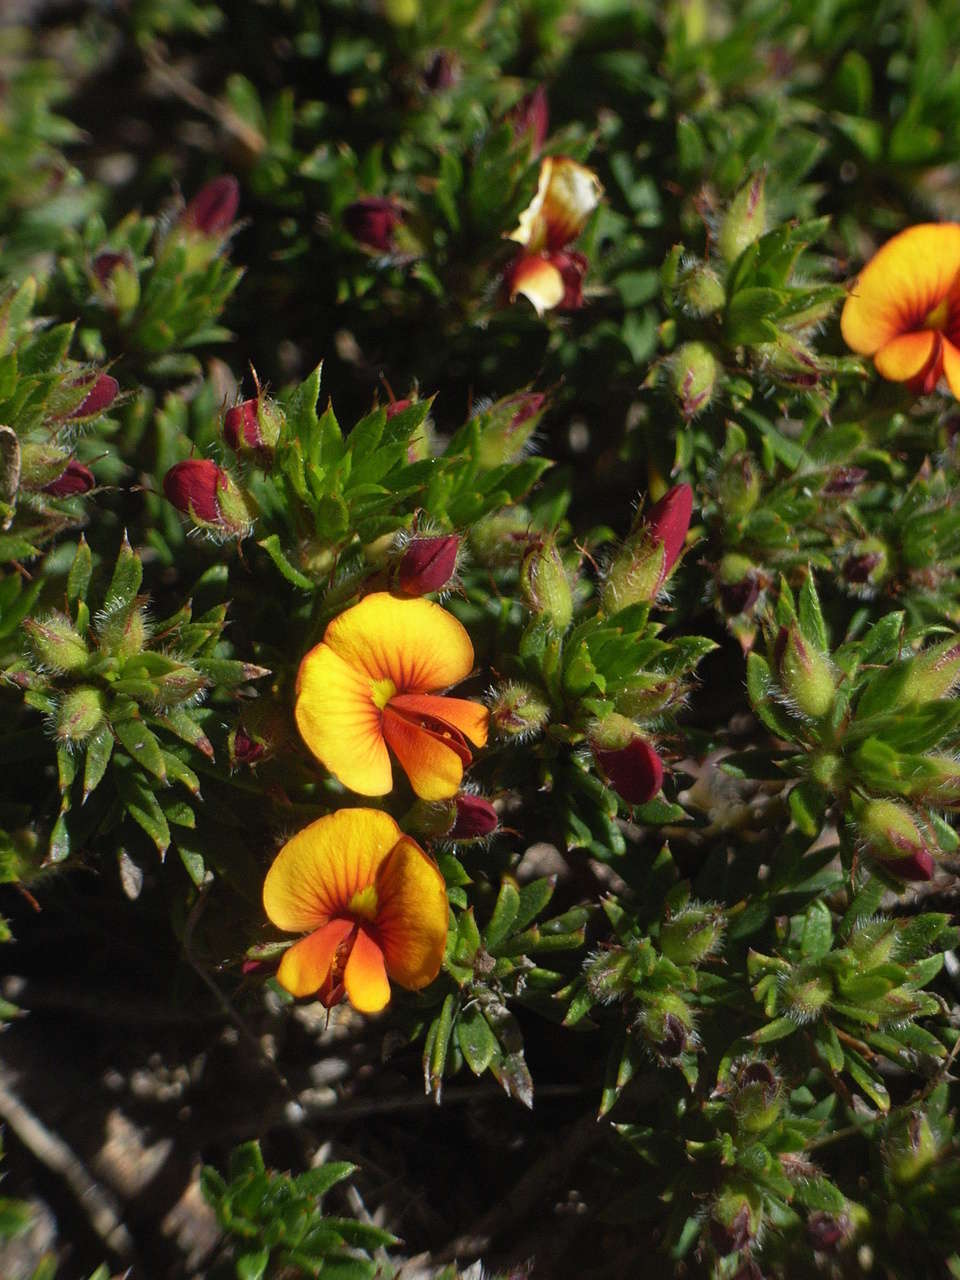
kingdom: Plantae
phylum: Tracheophyta
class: Magnoliopsida
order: Fabales
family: Fabaceae
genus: Pultenaea
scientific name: Pultenaea pedunculata
